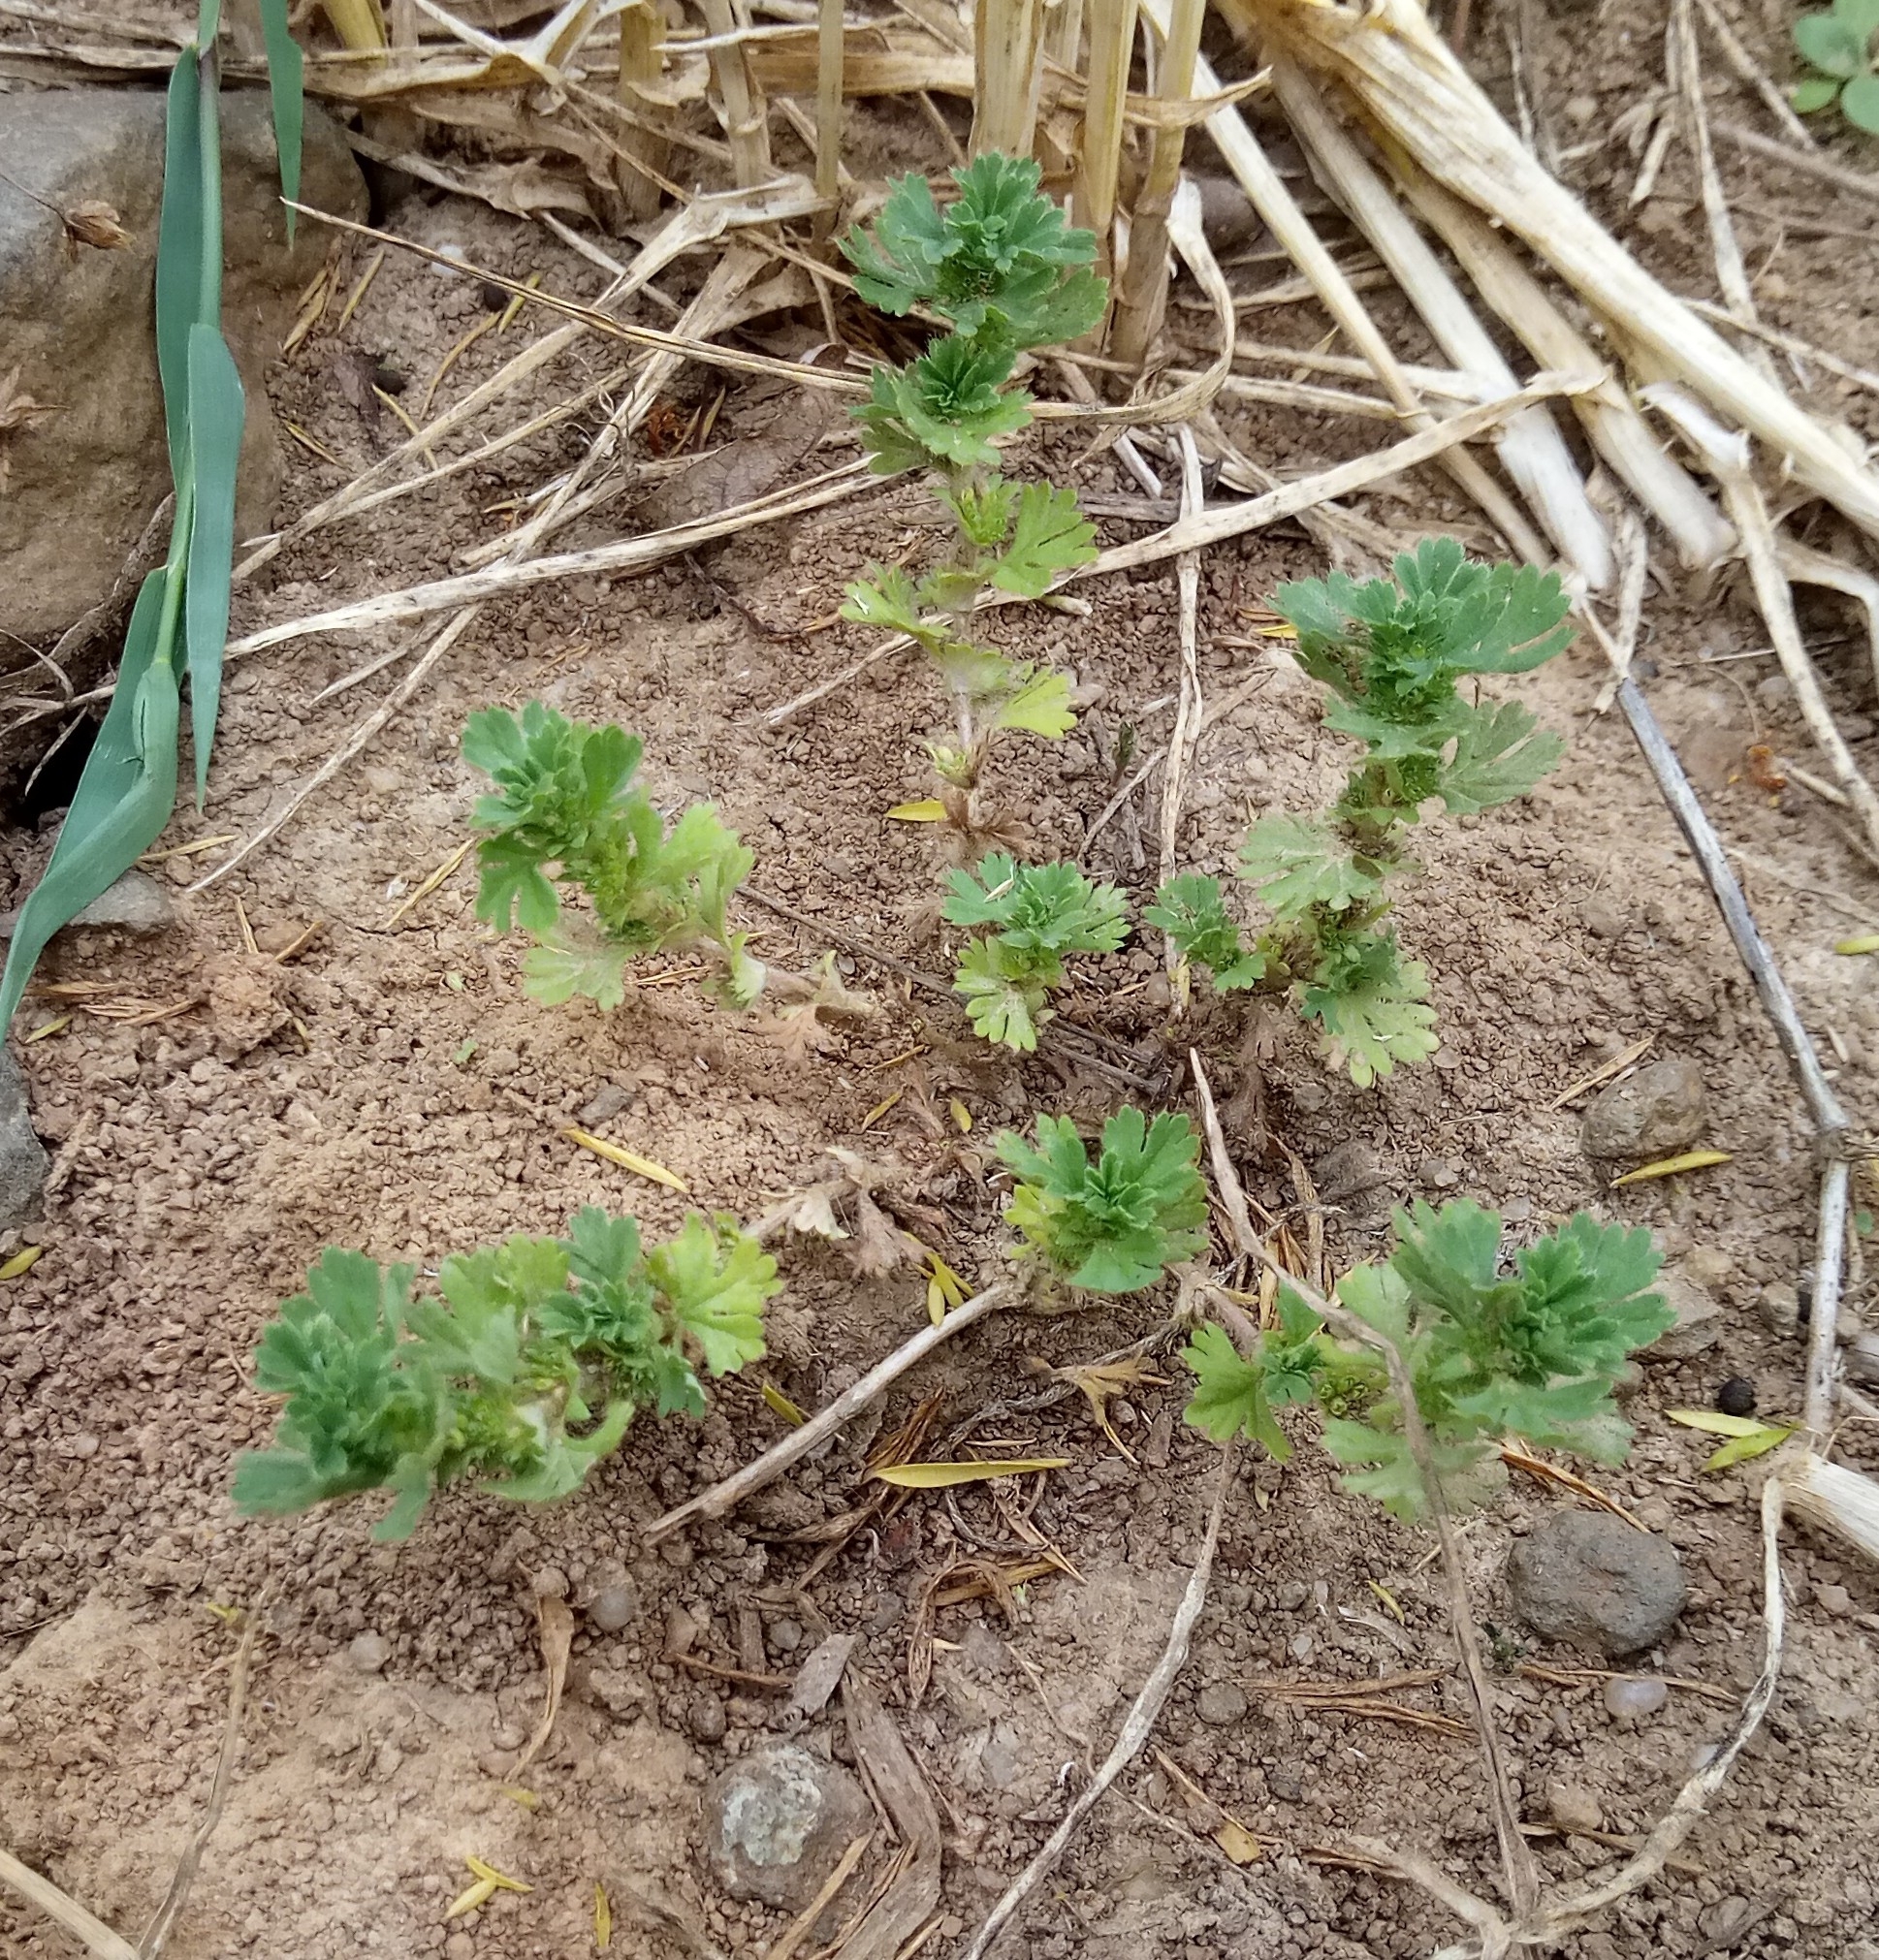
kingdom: Plantae
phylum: Tracheophyta
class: Magnoliopsida
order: Rosales
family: Rosaceae
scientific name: Rosaceae
